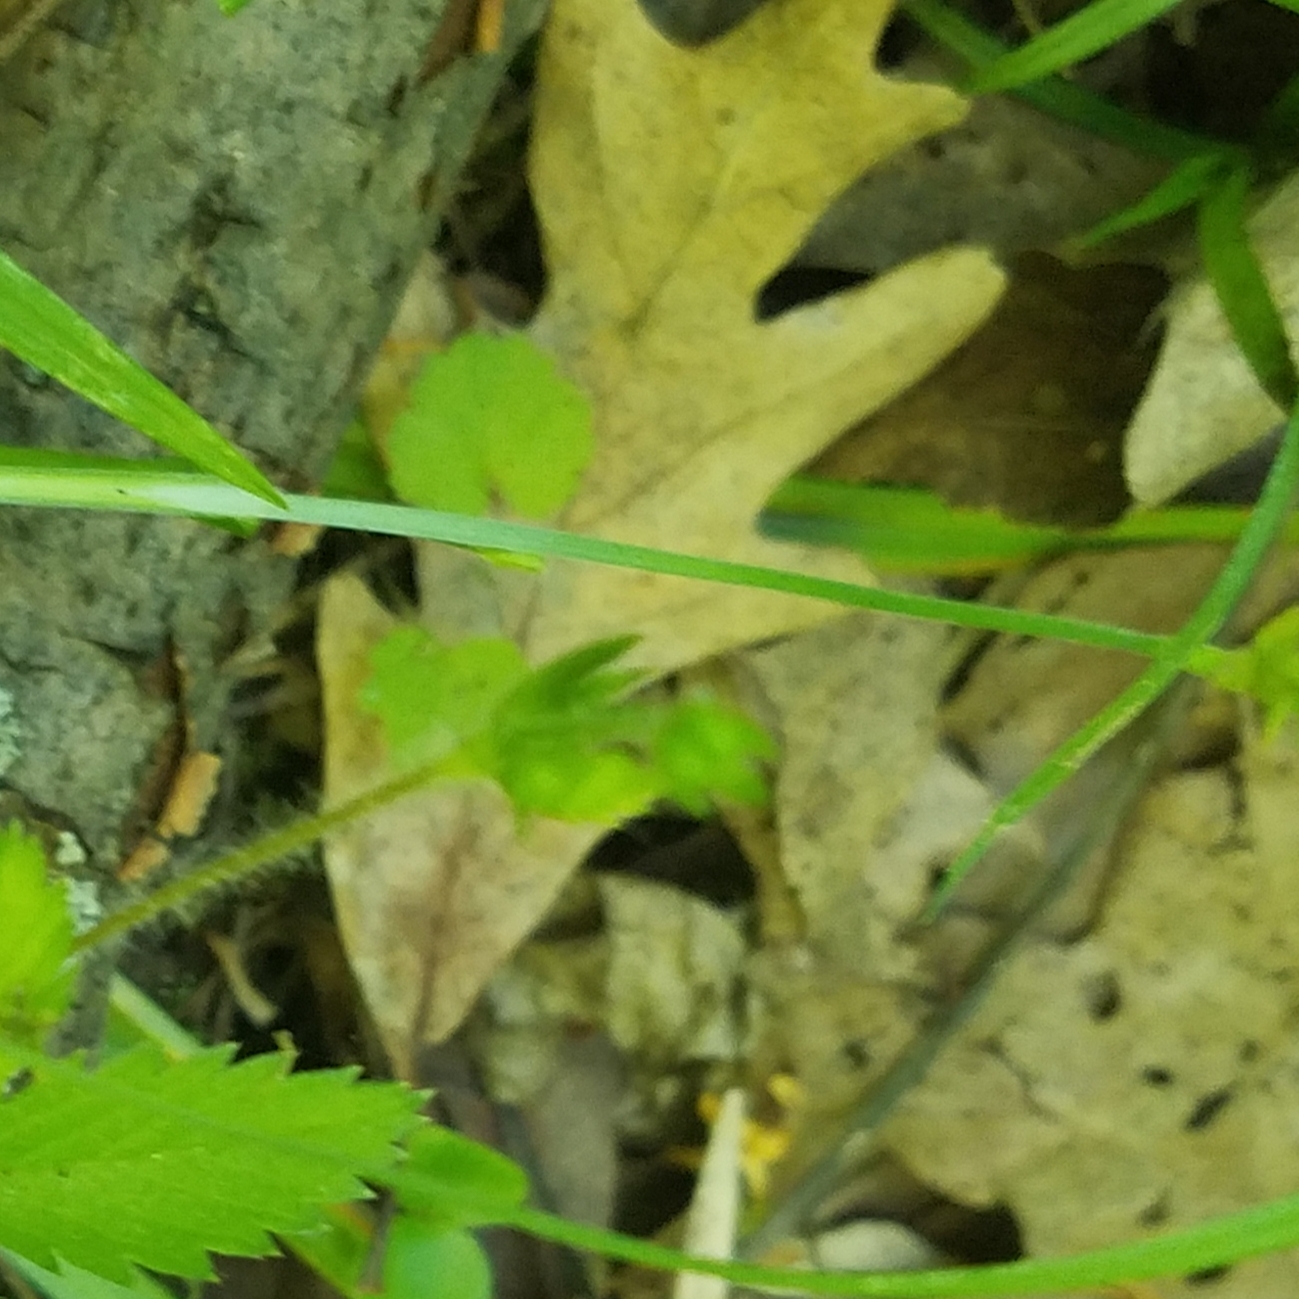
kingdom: Plantae
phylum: Tracheophyta
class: Magnoliopsida
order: Fagales
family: Fagaceae
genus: Quercus
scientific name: Quercus alba
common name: White oak
